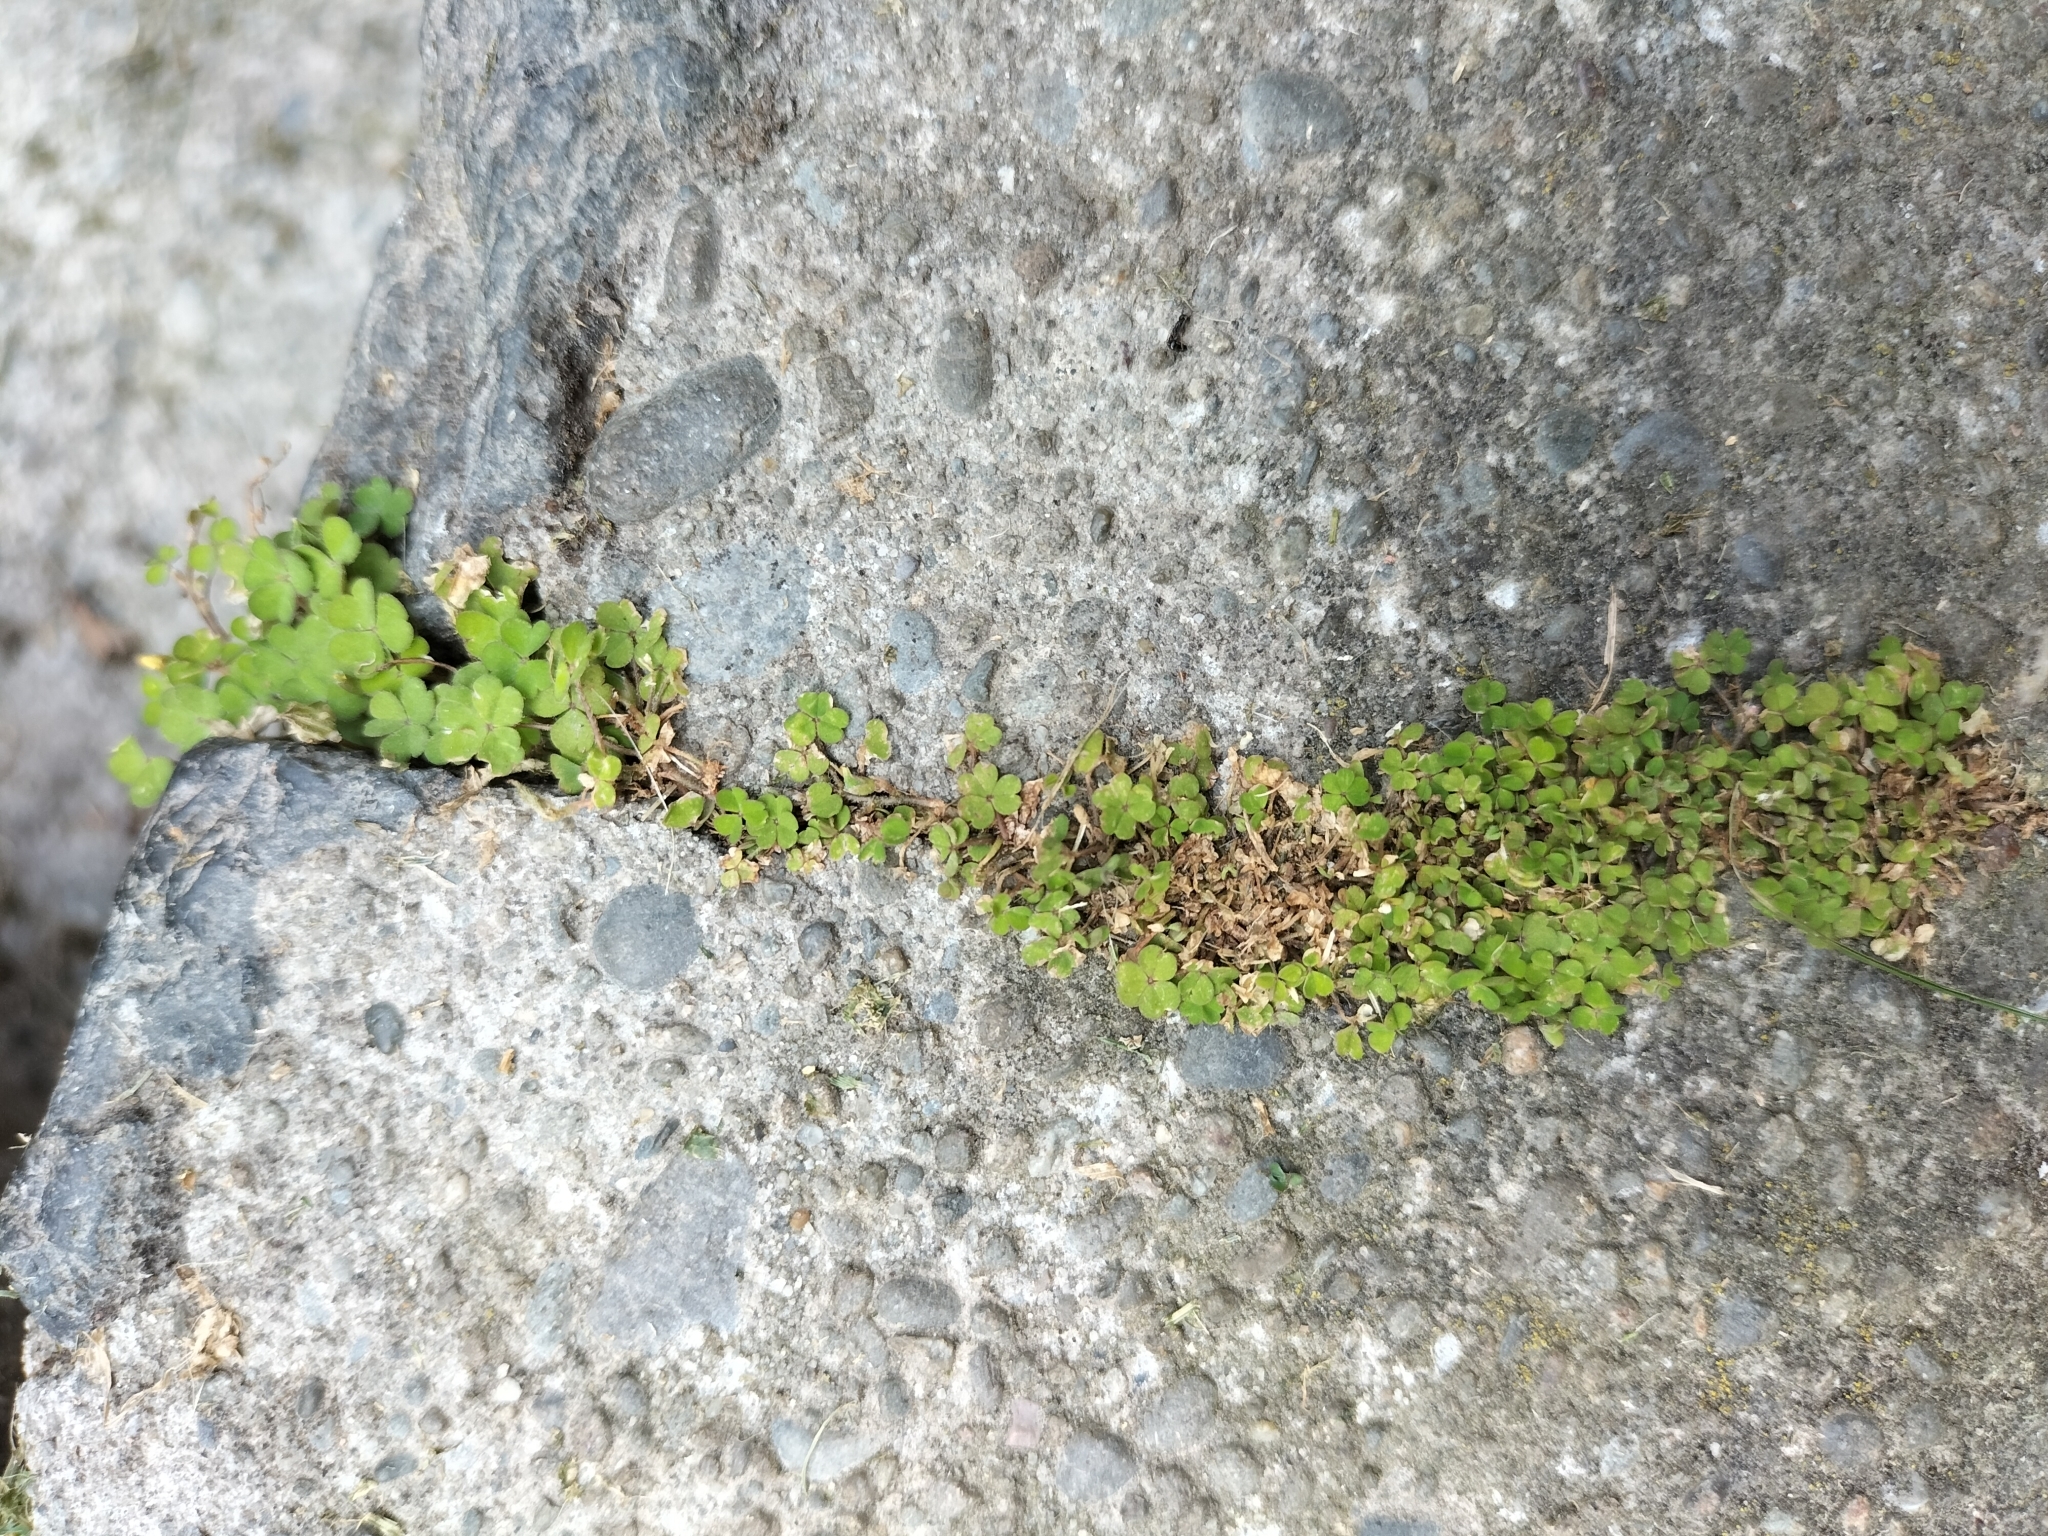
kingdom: Plantae
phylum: Tracheophyta
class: Magnoliopsida
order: Oxalidales
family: Oxalidaceae
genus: Oxalis
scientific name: Oxalis exilis
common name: Least yellow-sorrel
